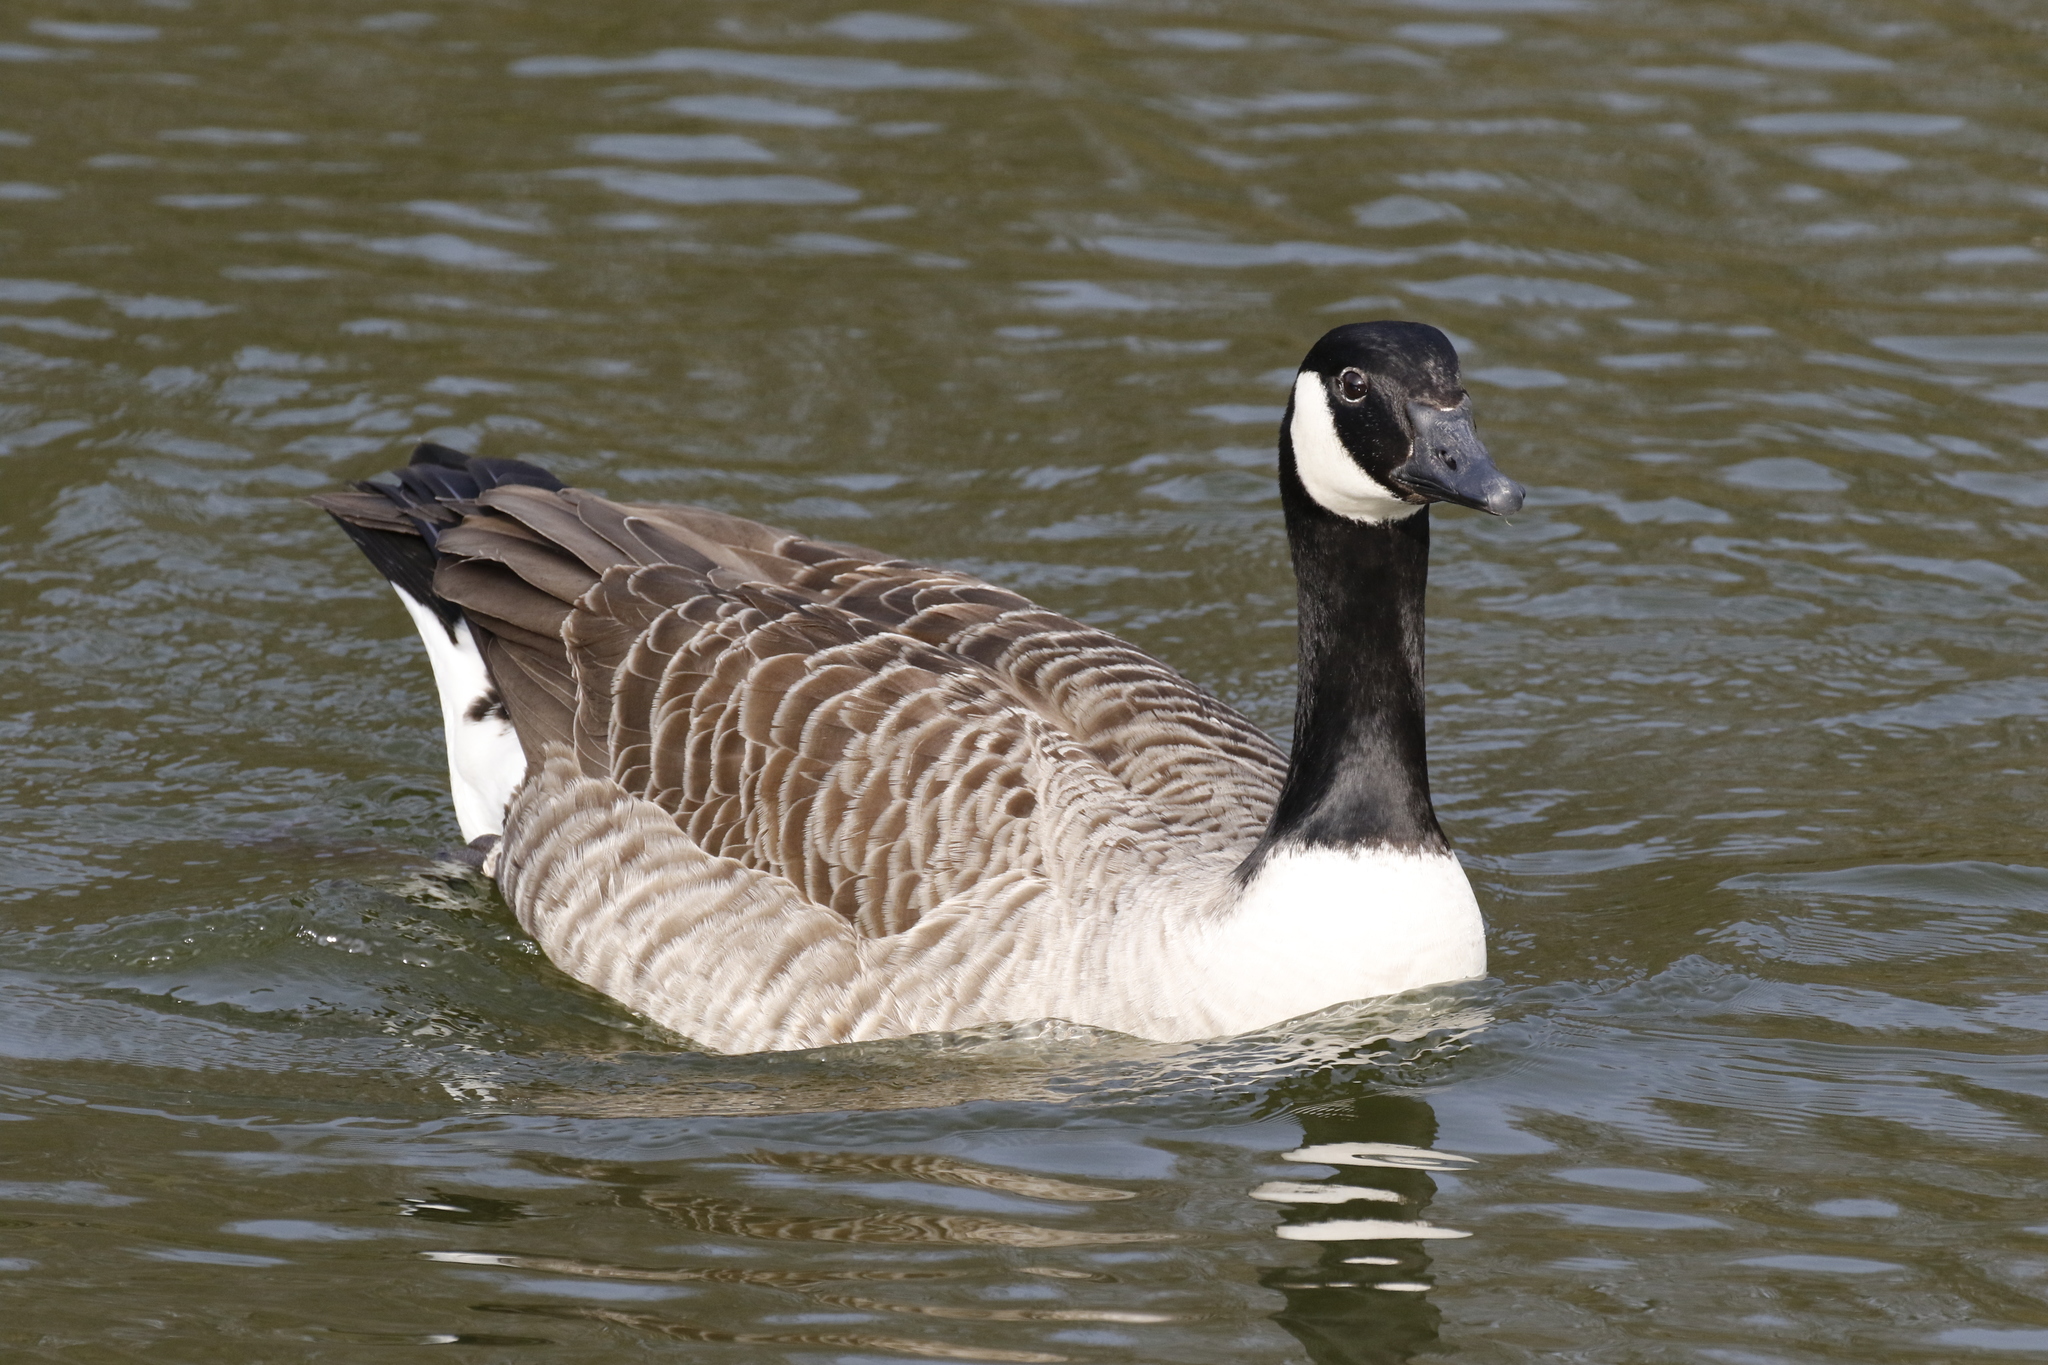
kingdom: Animalia
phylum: Chordata
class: Aves
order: Anseriformes
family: Anatidae
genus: Branta
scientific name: Branta canadensis
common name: Canada goose
